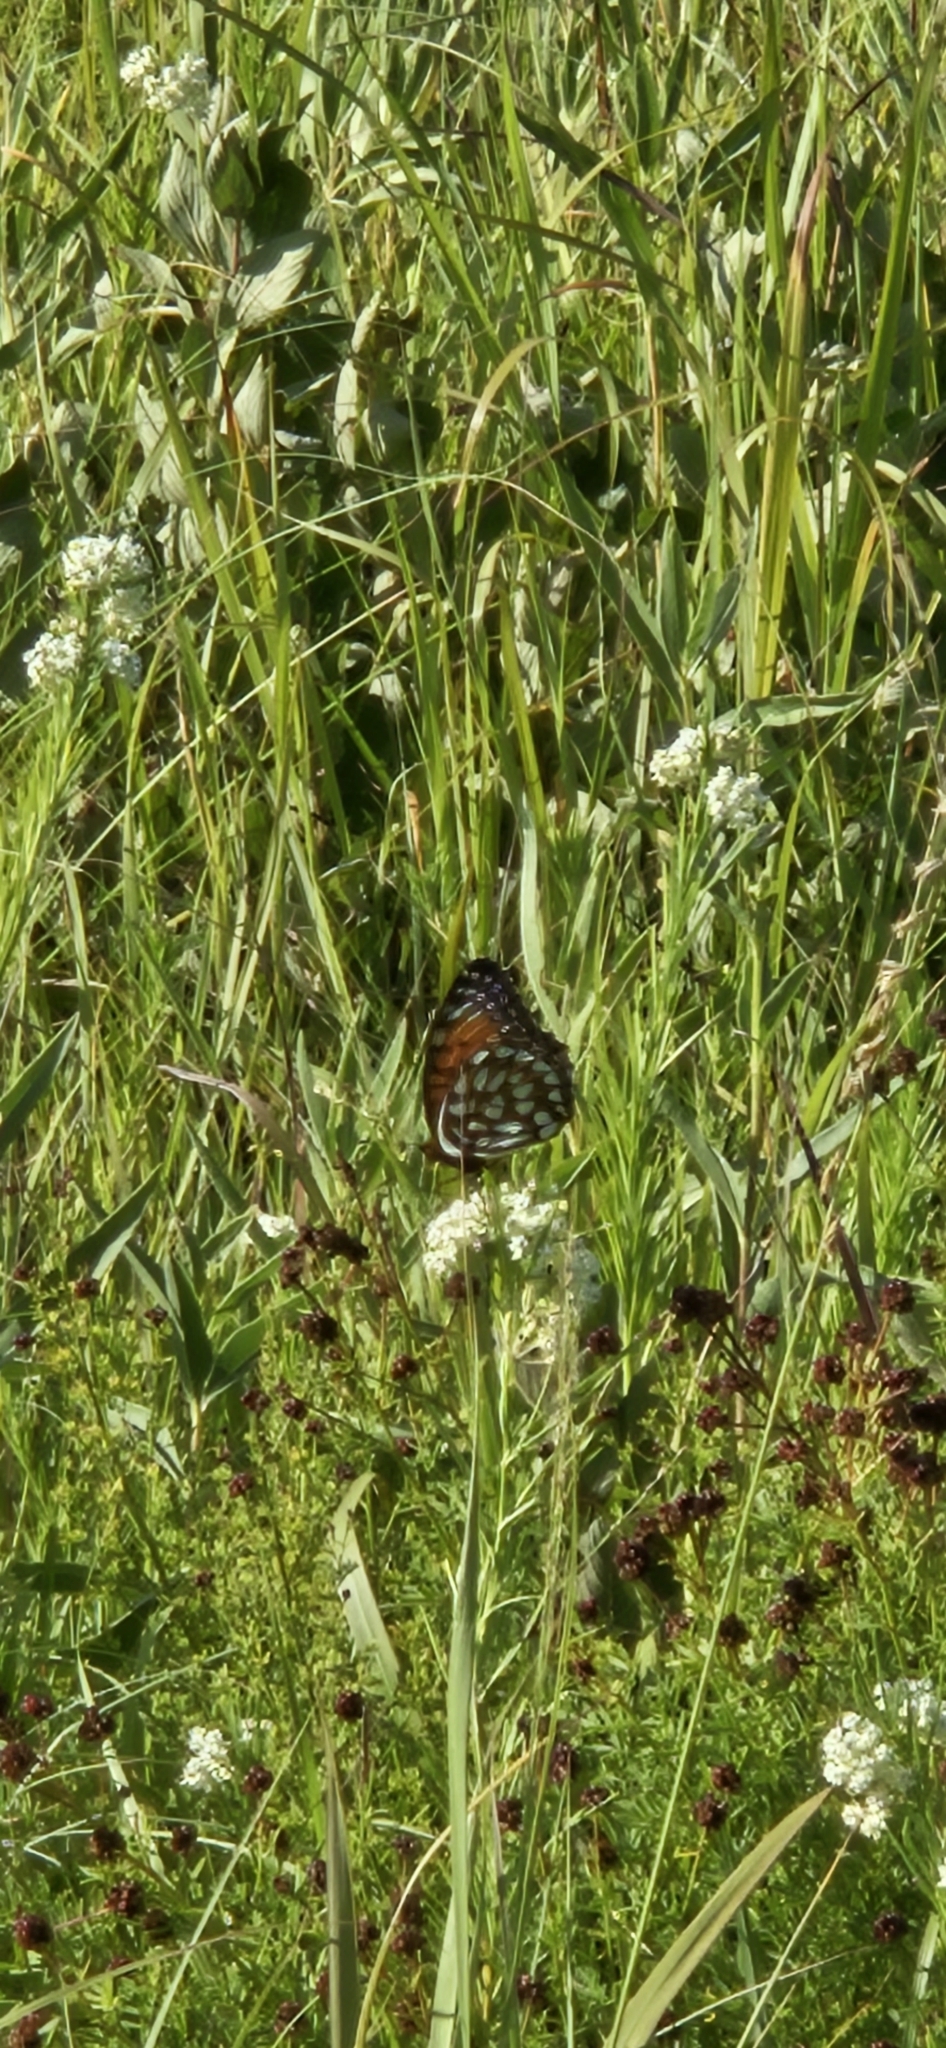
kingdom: Animalia
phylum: Arthropoda
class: Insecta
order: Lepidoptera
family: Nymphalidae
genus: Speyeria
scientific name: Speyeria idalia
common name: Regal fritillary
